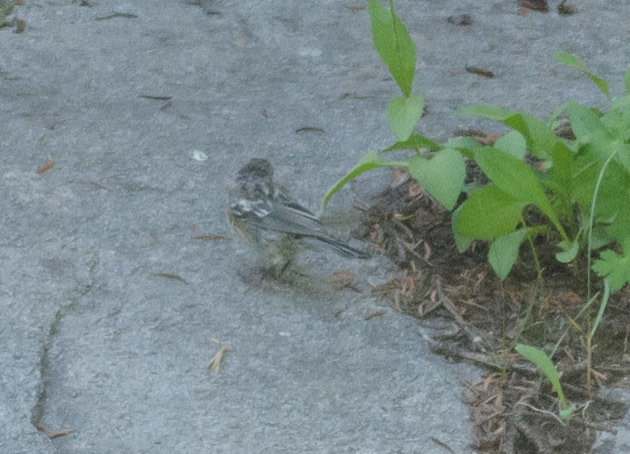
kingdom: Animalia
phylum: Chordata
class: Aves
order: Passeriformes
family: Parulidae
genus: Setophaga
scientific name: Setophaga auduboni
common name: Audubon's warbler
